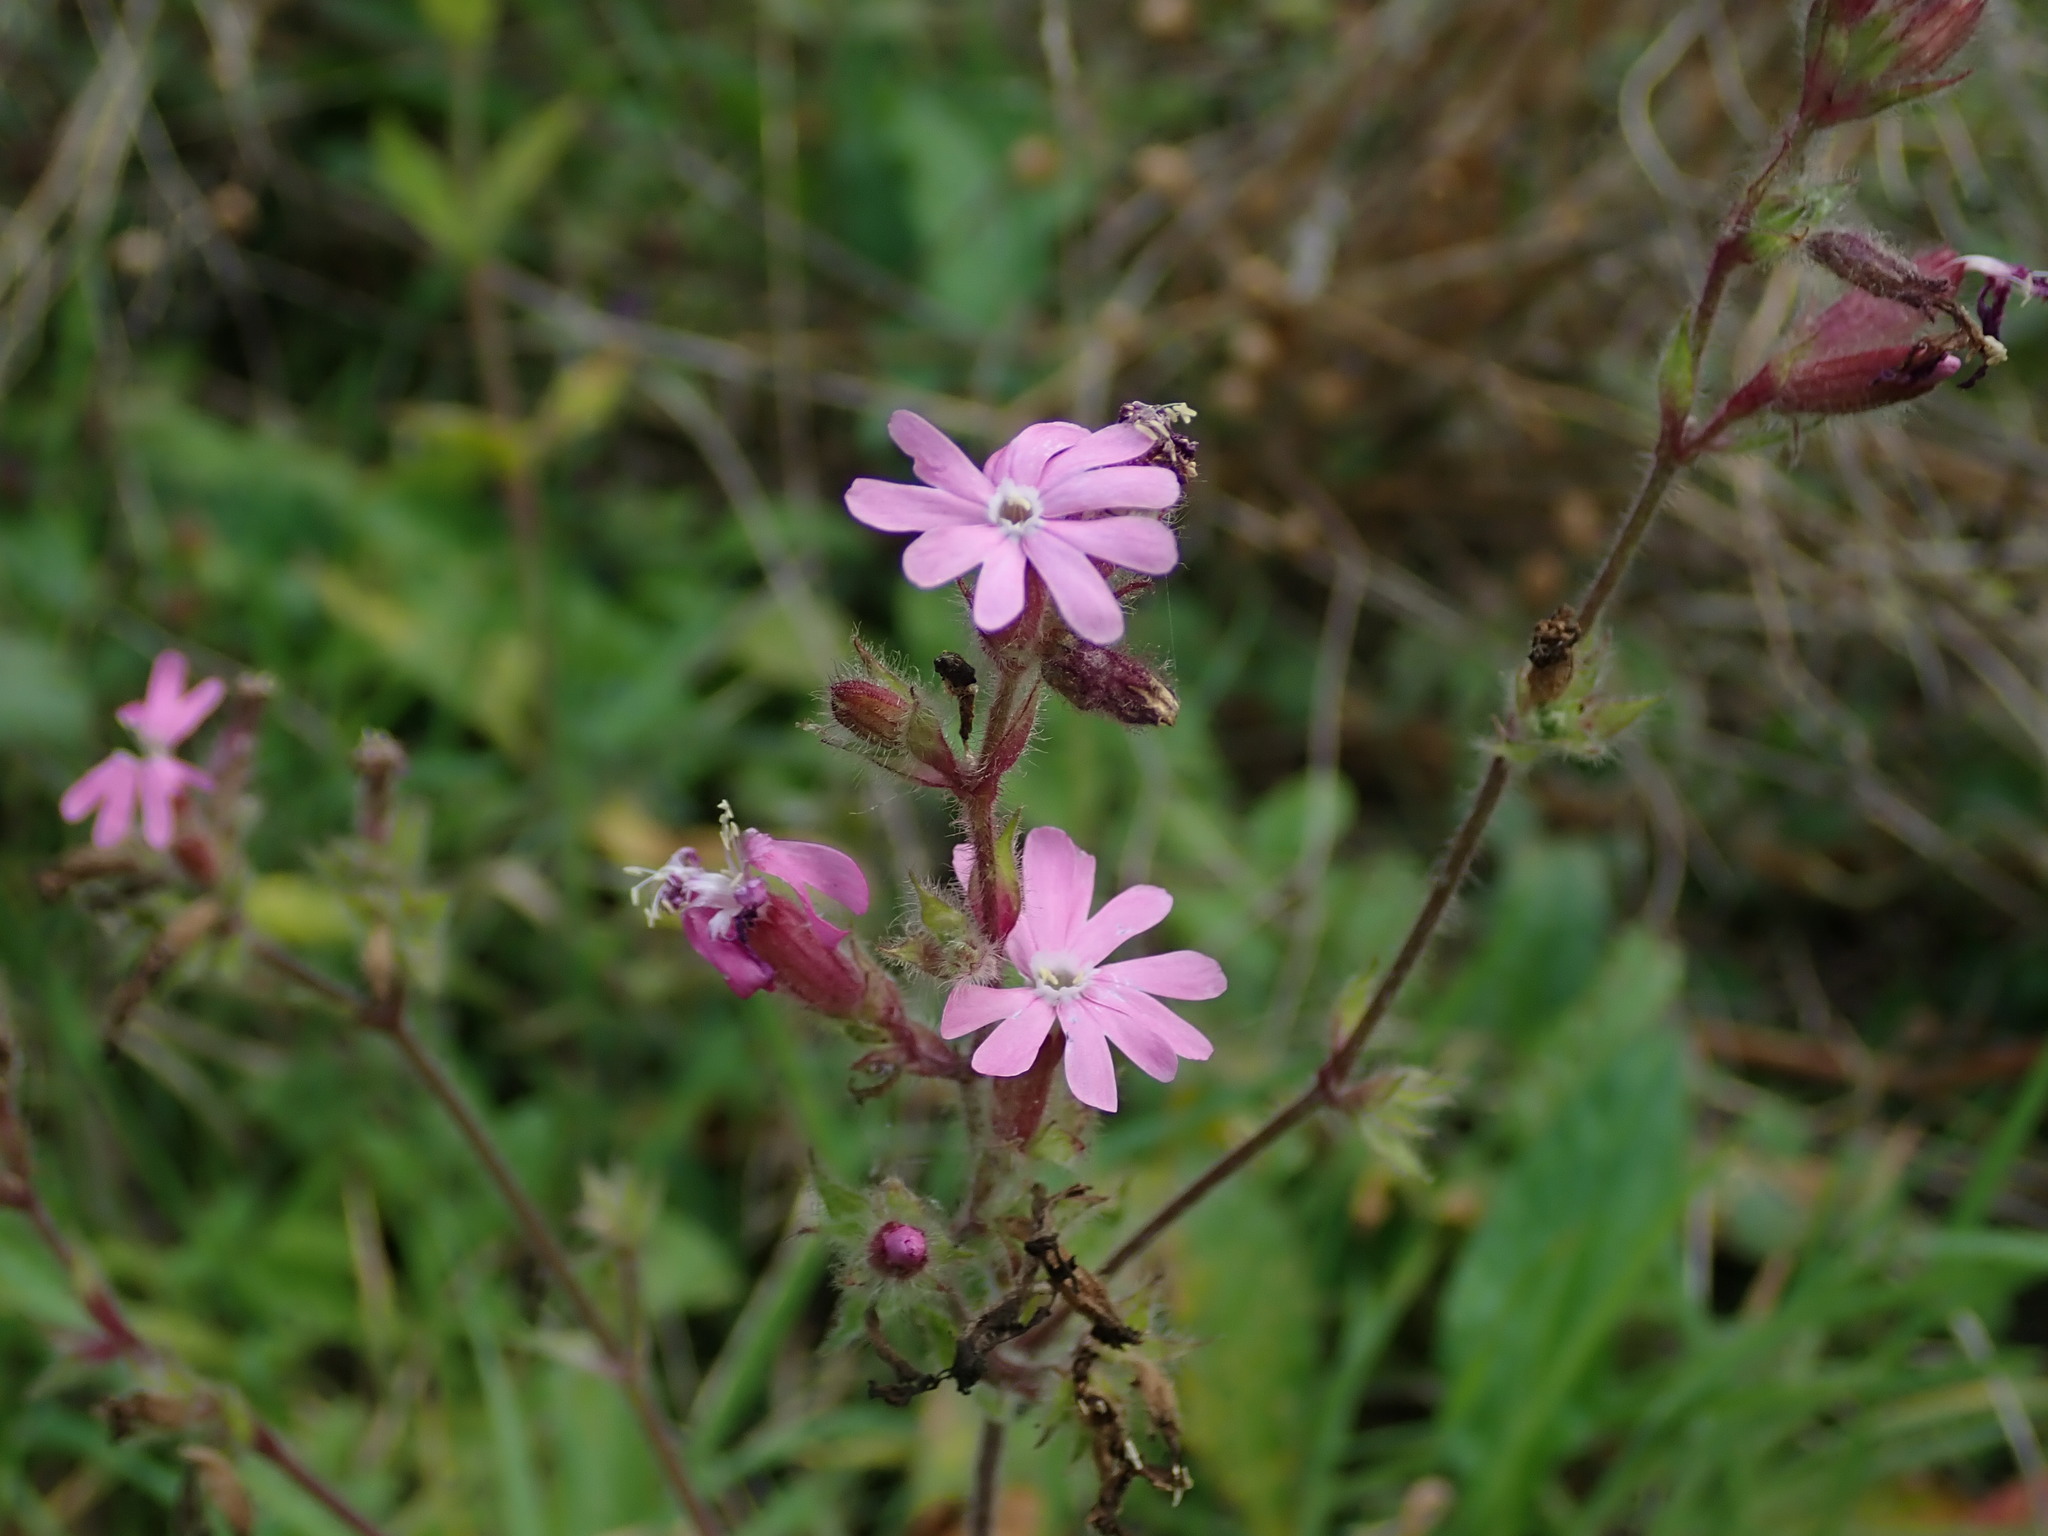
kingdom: Plantae
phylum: Tracheophyta
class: Magnoliopsida
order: Caryophyllales
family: Caryophyllaceae
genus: Silene
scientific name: Silene dioica
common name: Red campion
